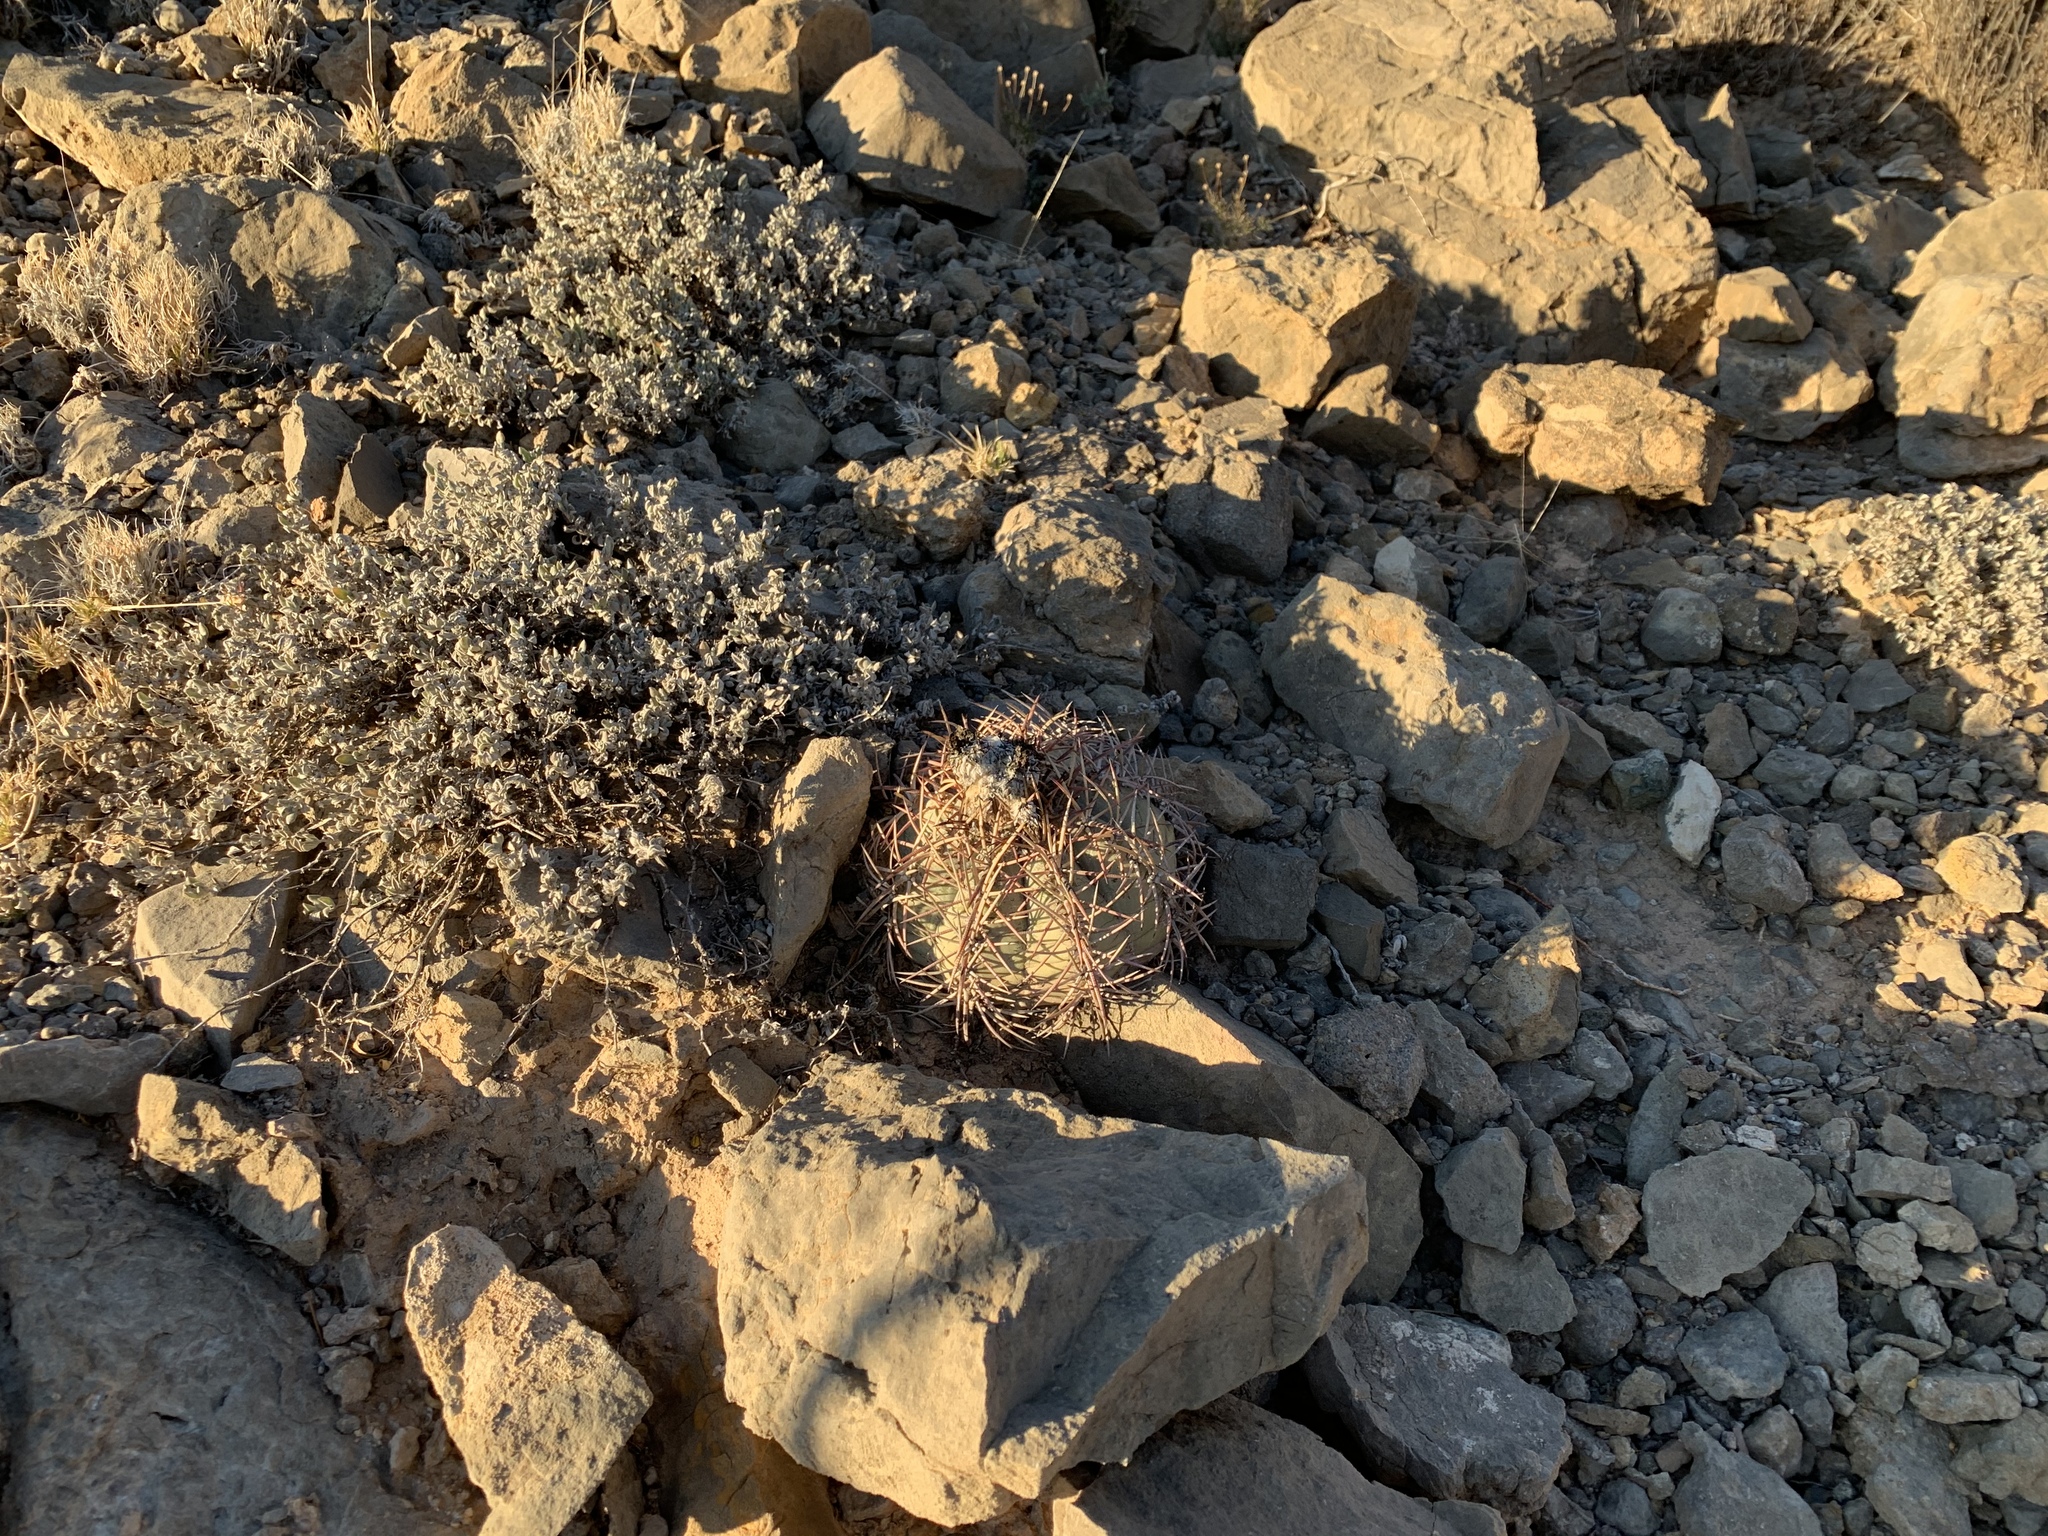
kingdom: Plantae
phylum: Tracheophyta
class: Magnoliopsida
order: Caryophyllales
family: Cactaceae
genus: Echinocactus
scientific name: Echinocactus horizonthalonius
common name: Devilshead
